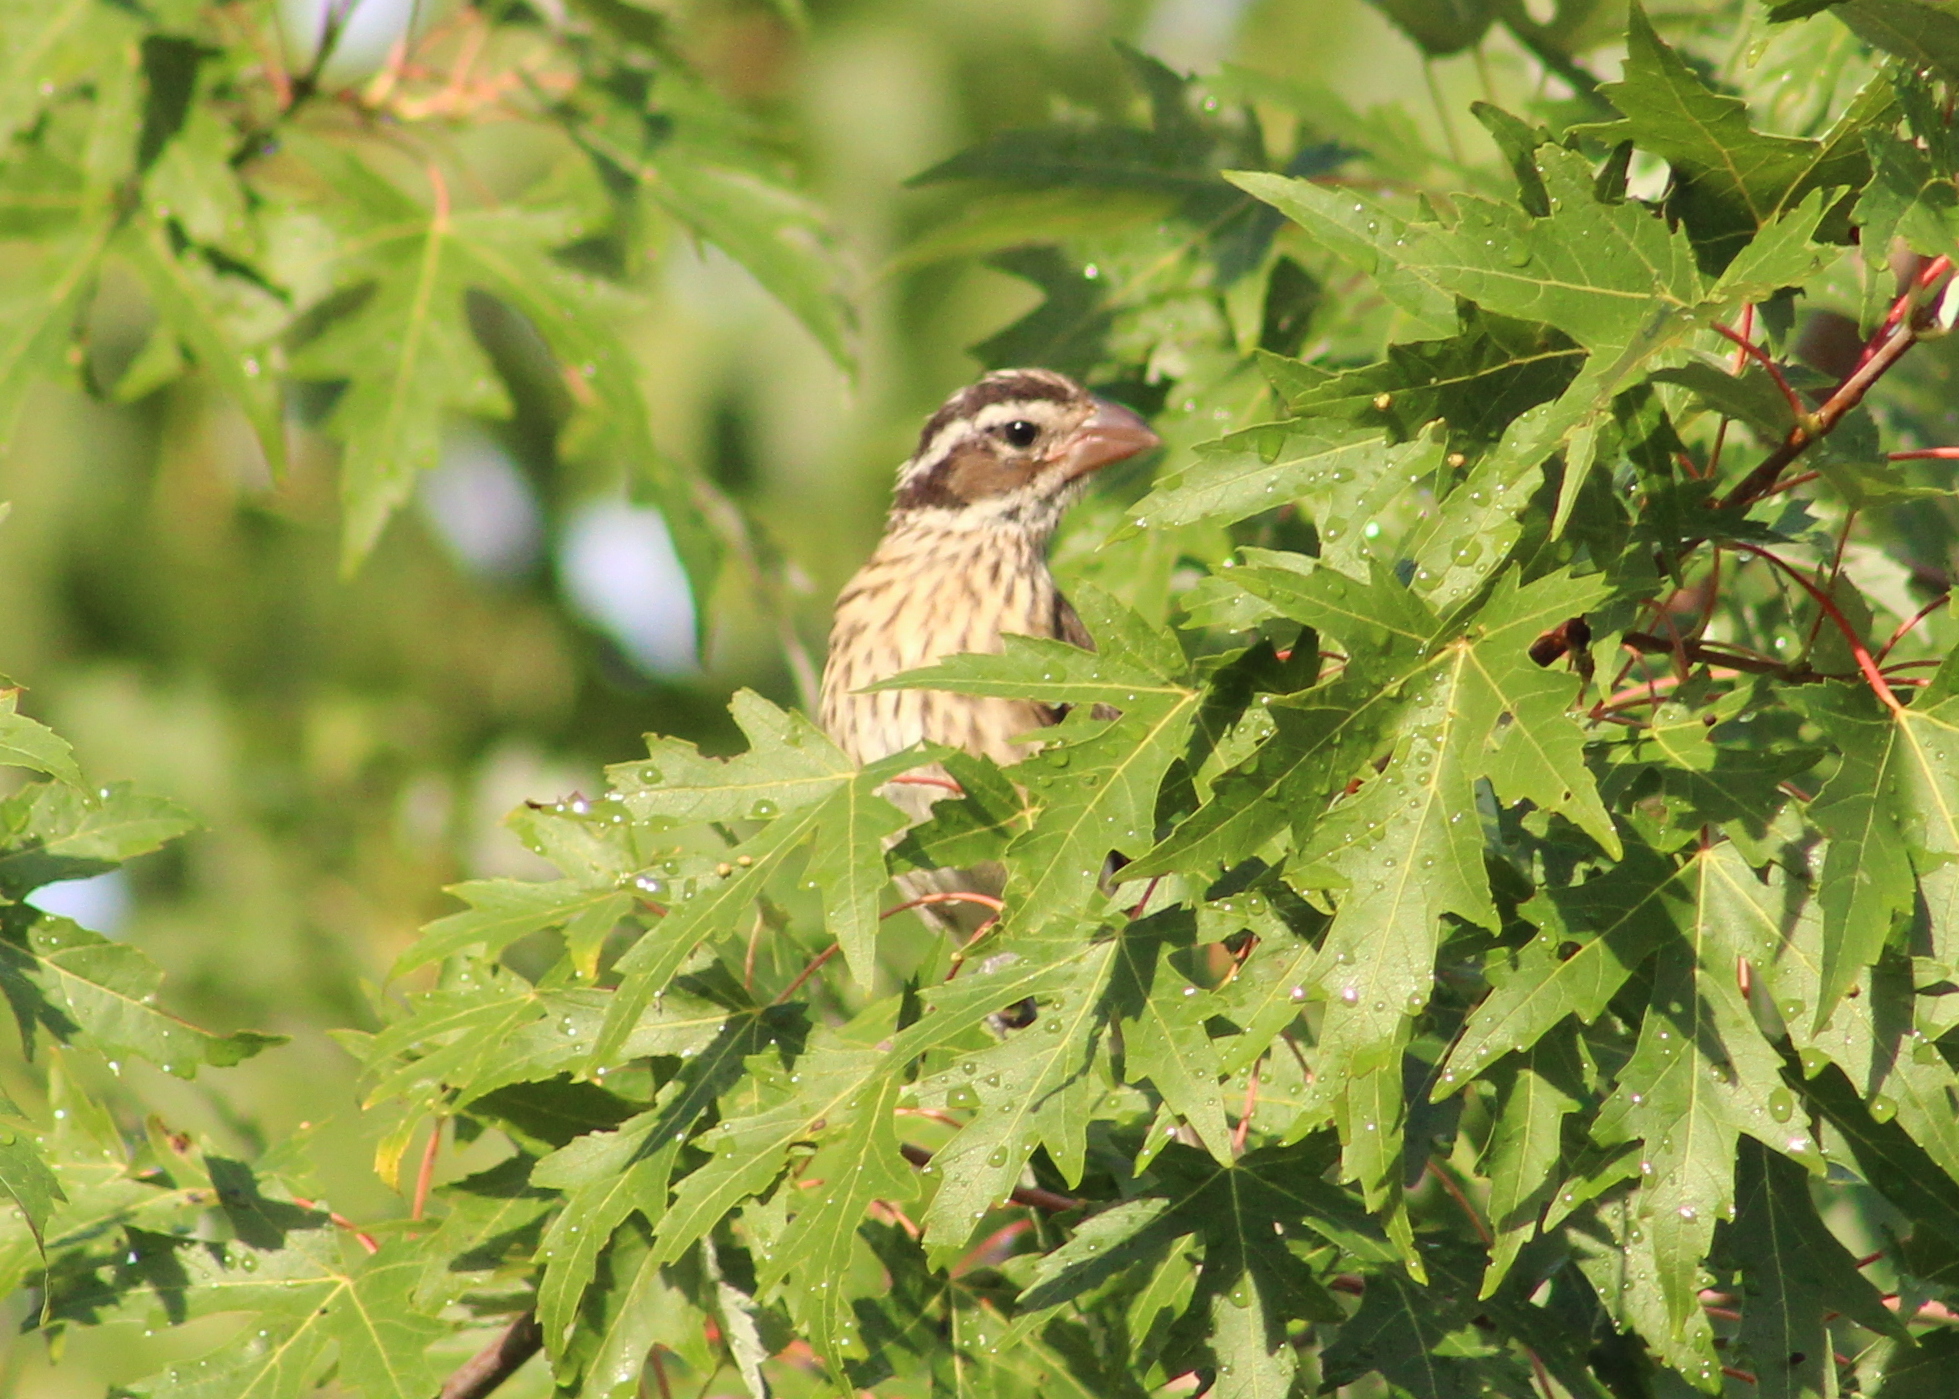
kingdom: Animalia
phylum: Chordata
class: Aves
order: Passeriformes
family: Cardinalidae
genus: Pheucticus
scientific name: Pheucticus ludovicianus
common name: Rose-breasted grosbeak
